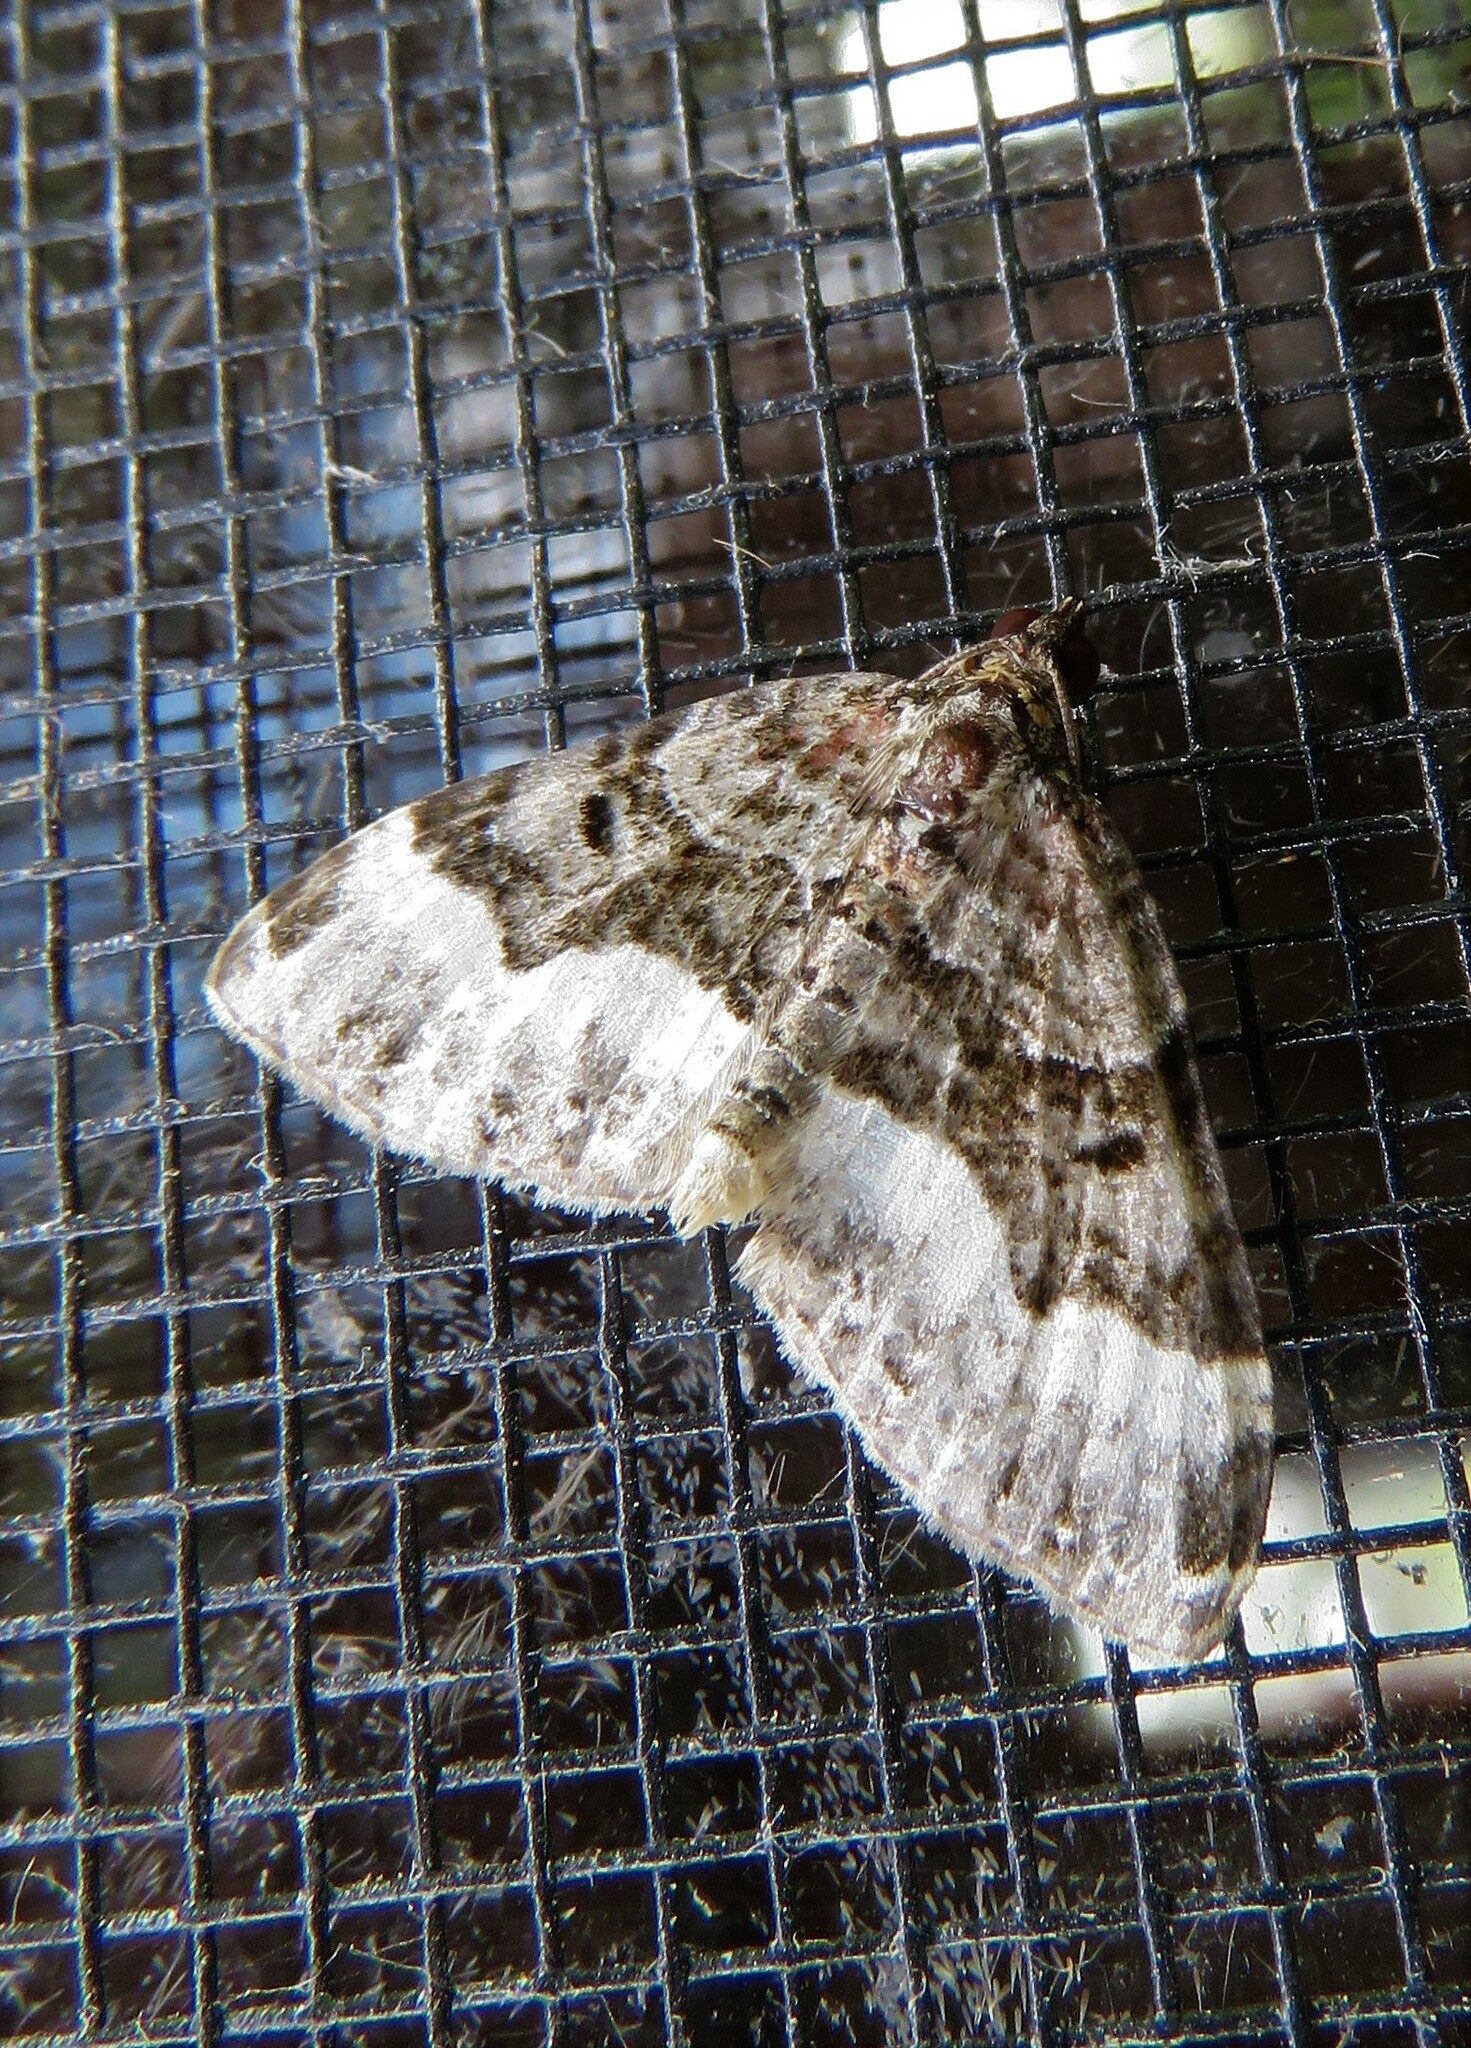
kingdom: Animalia
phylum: Arthropoda
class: Insecta
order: Lepidoptera
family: Geometridae
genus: Euphyia
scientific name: Euphyia intermediata
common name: Sharp-angled carpet
